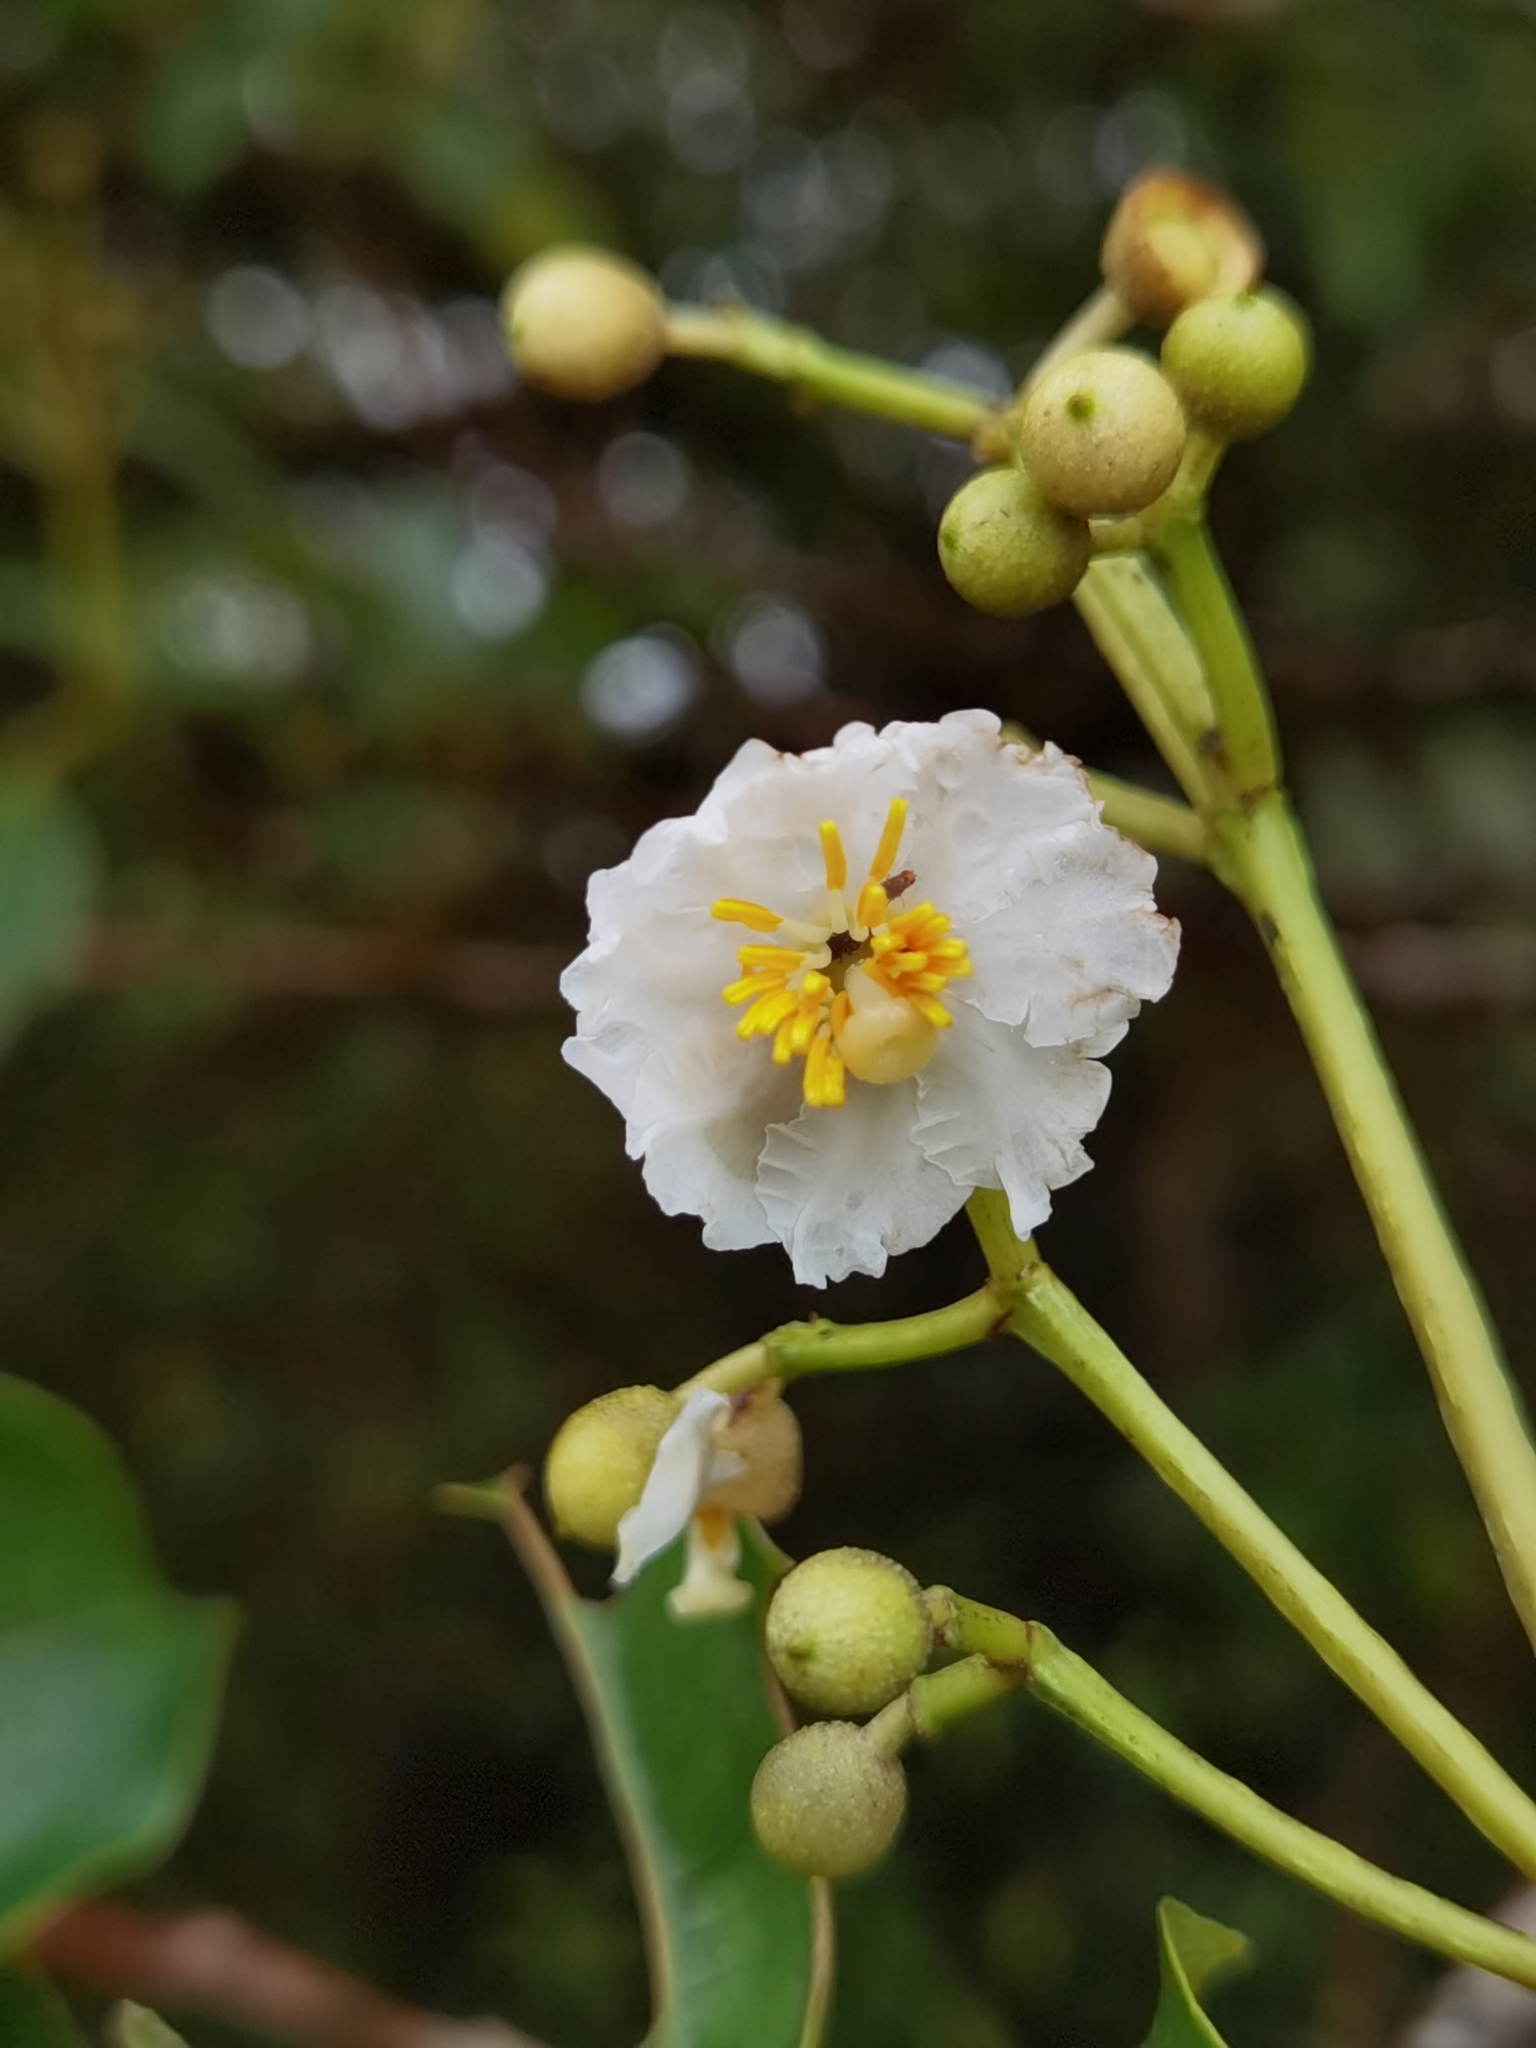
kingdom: Plantae
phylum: Tracheophyta
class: Magnoliopsida
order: Myrtales
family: Melastomataceae
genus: Miconia
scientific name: Miconia oerstediana
